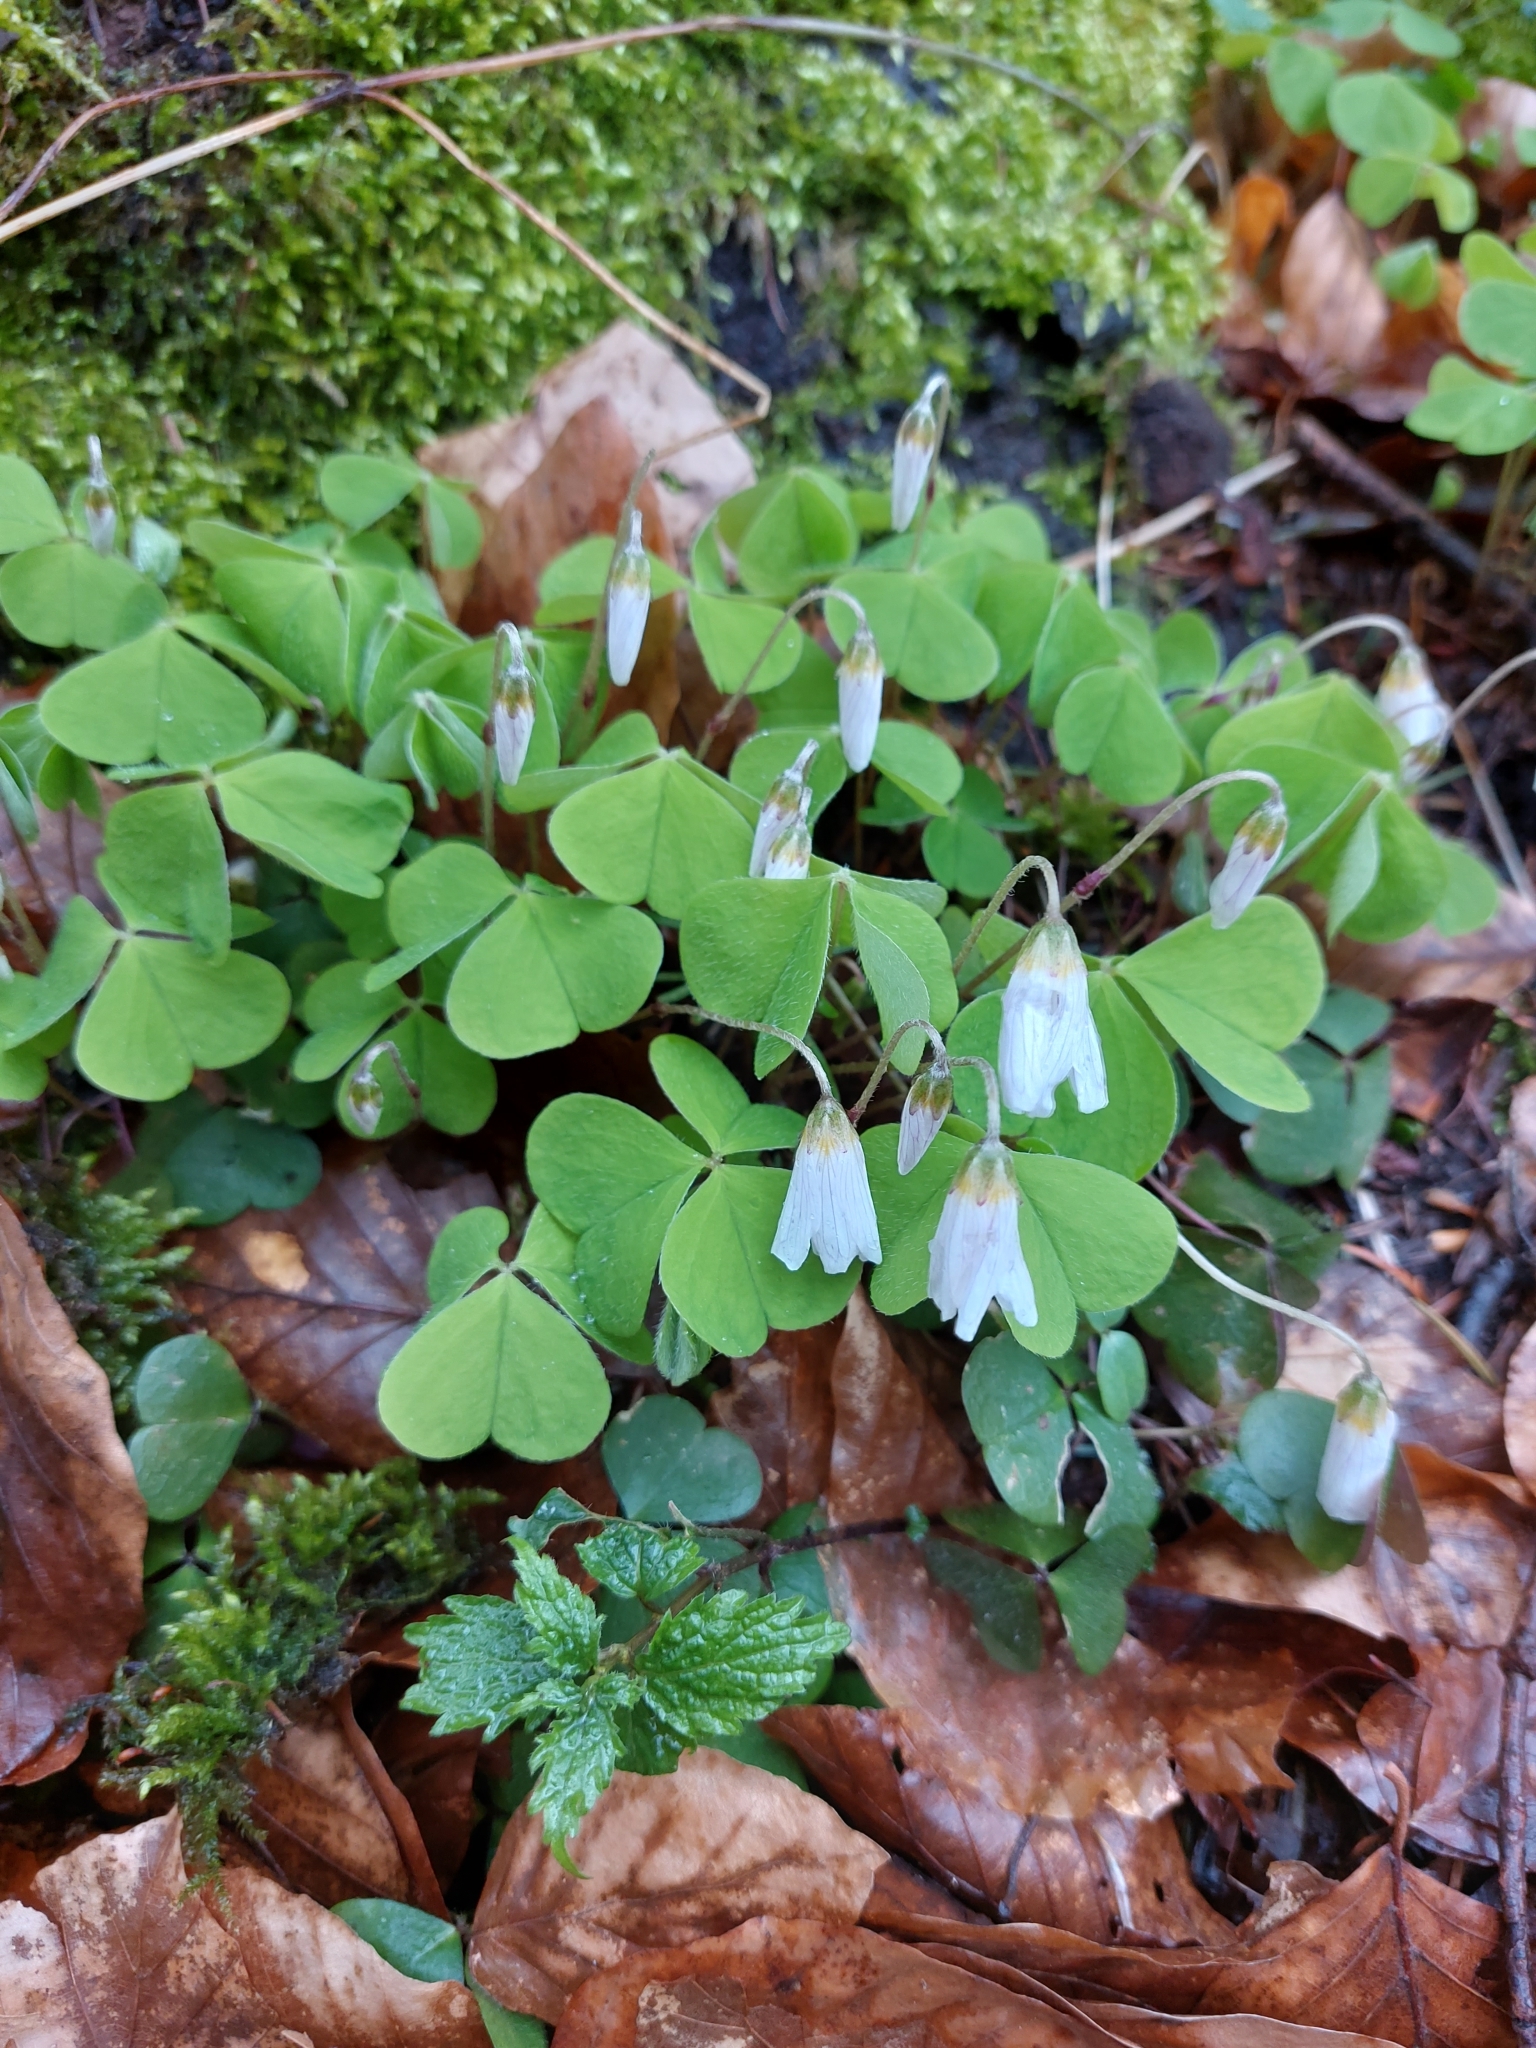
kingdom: Plantae
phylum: Tracheophyta
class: Magnoliopsida
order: Oxalidales
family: Oxalidaceae
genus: Oxalis
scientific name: Oxalis acetosella
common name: Wood-sorrel
